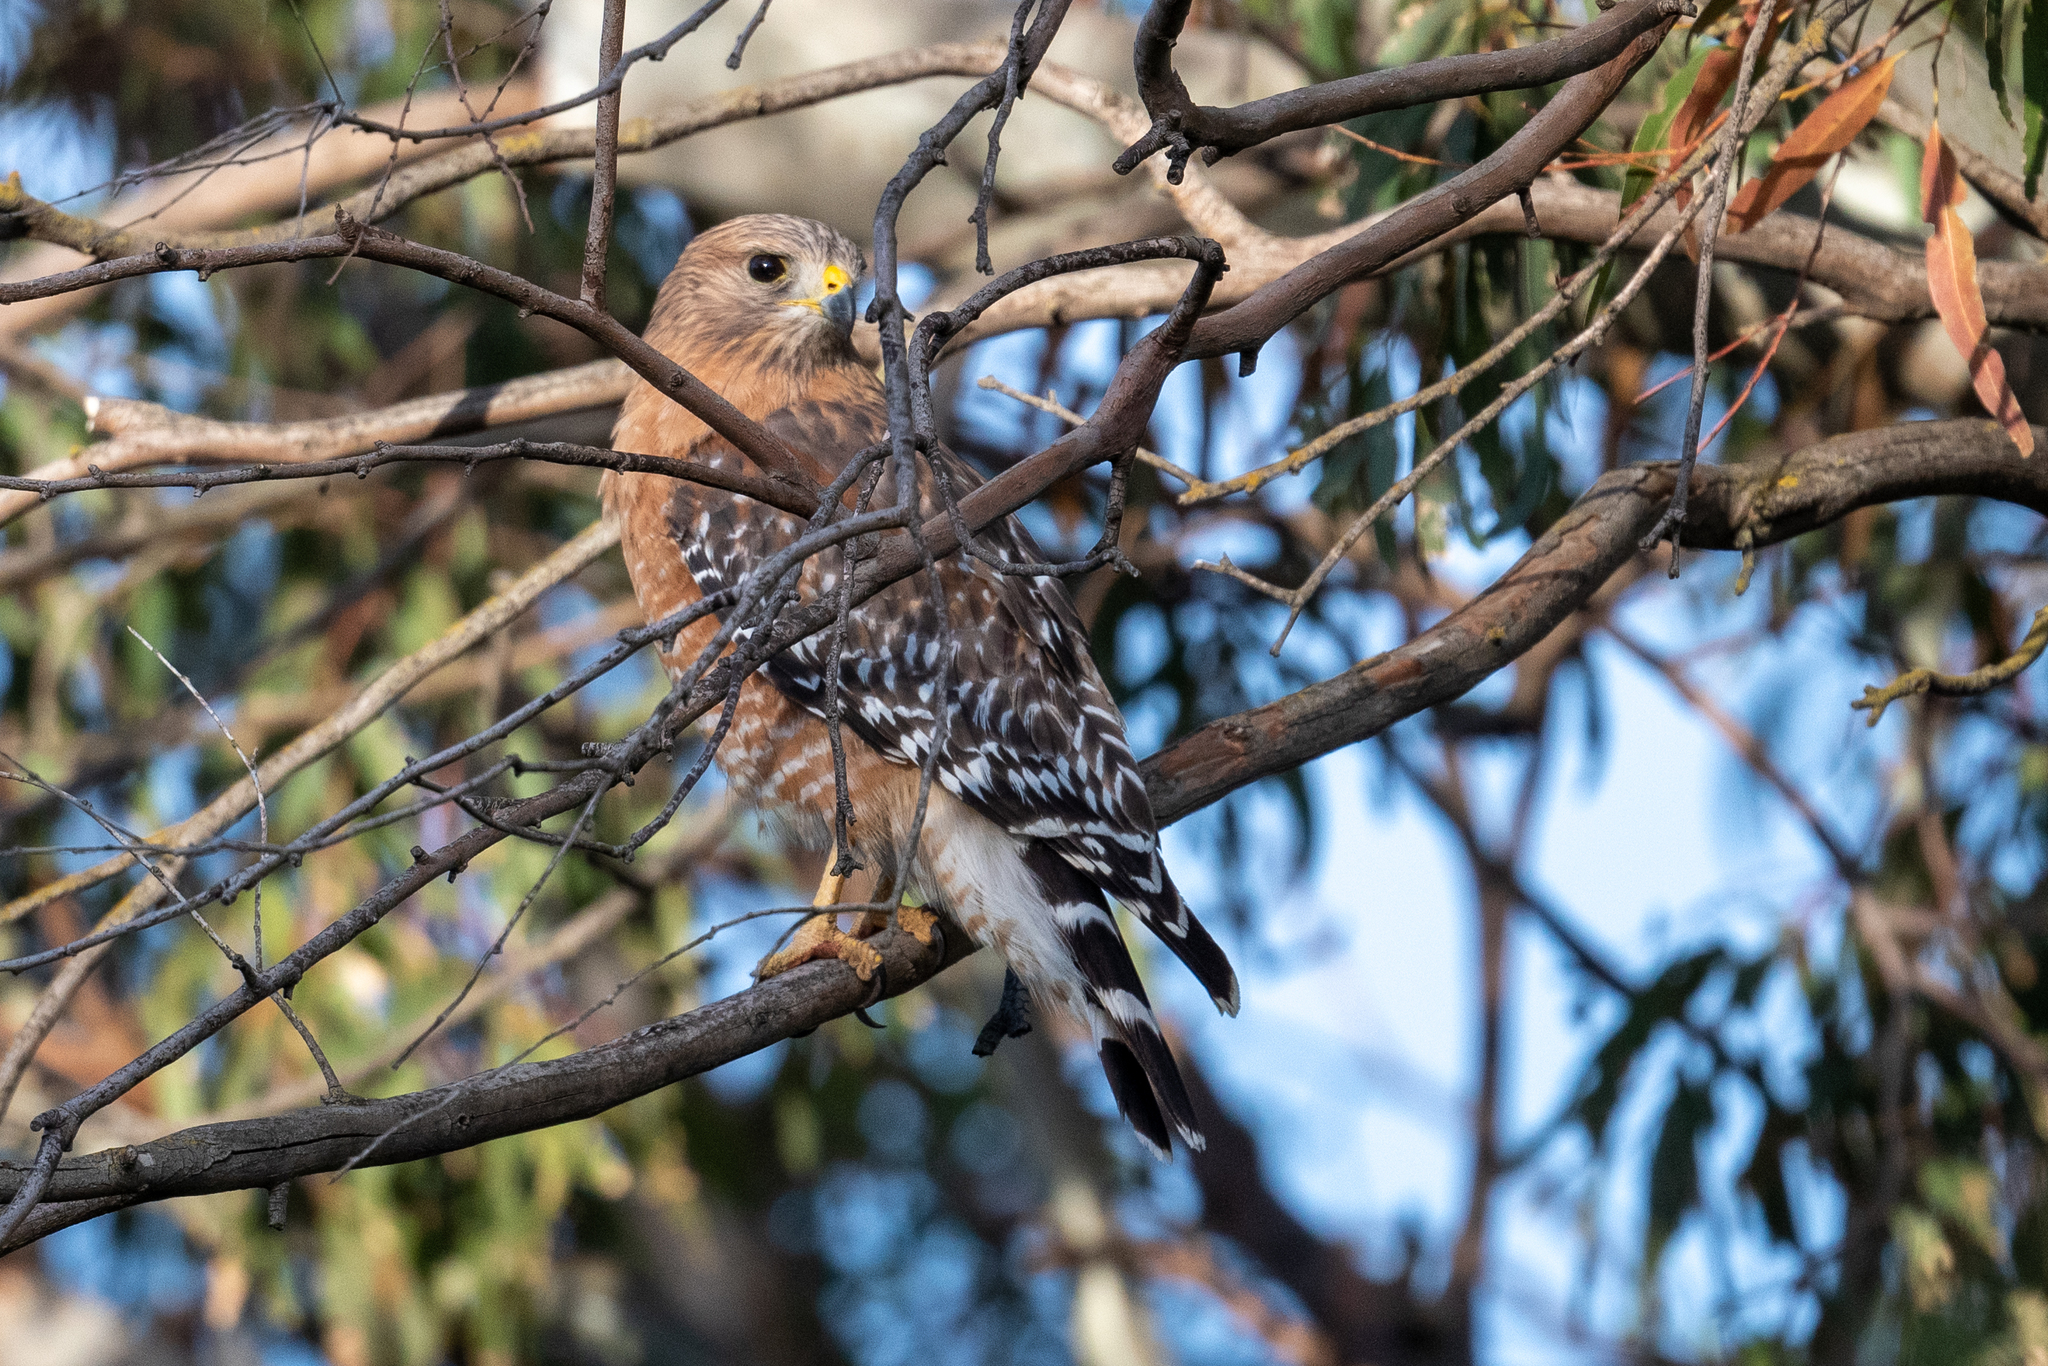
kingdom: Animalia
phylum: Chordata
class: Aves
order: Accipitriformes
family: Accipitridae
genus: Buteo
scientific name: Buteo lineatus
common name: Red-shouldered hawk
